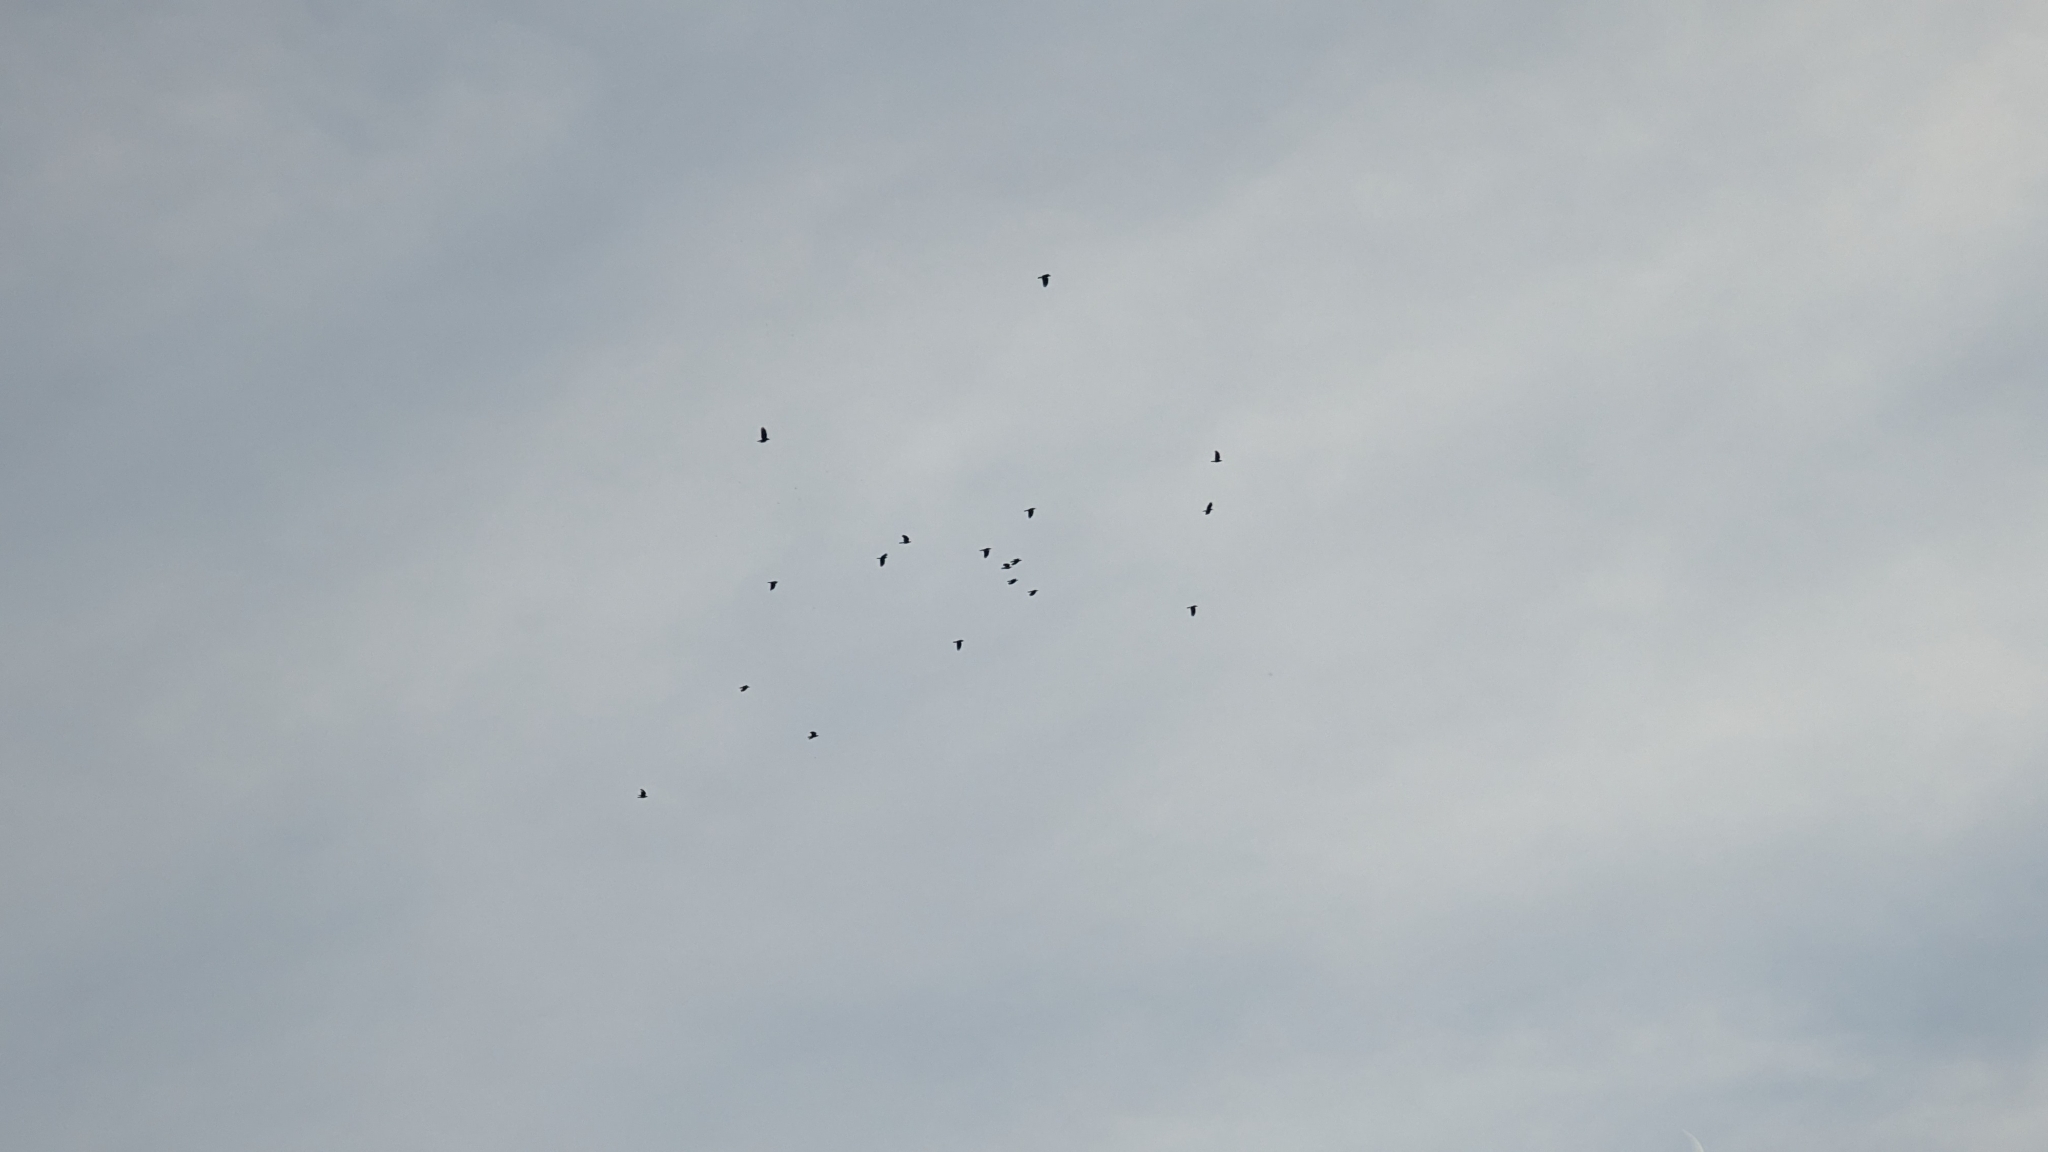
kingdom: Animalia
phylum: Chordata
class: Aves
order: Passeriformes
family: Corvidae
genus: Corvus
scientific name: Corvus ossifragus
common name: Fish crow
